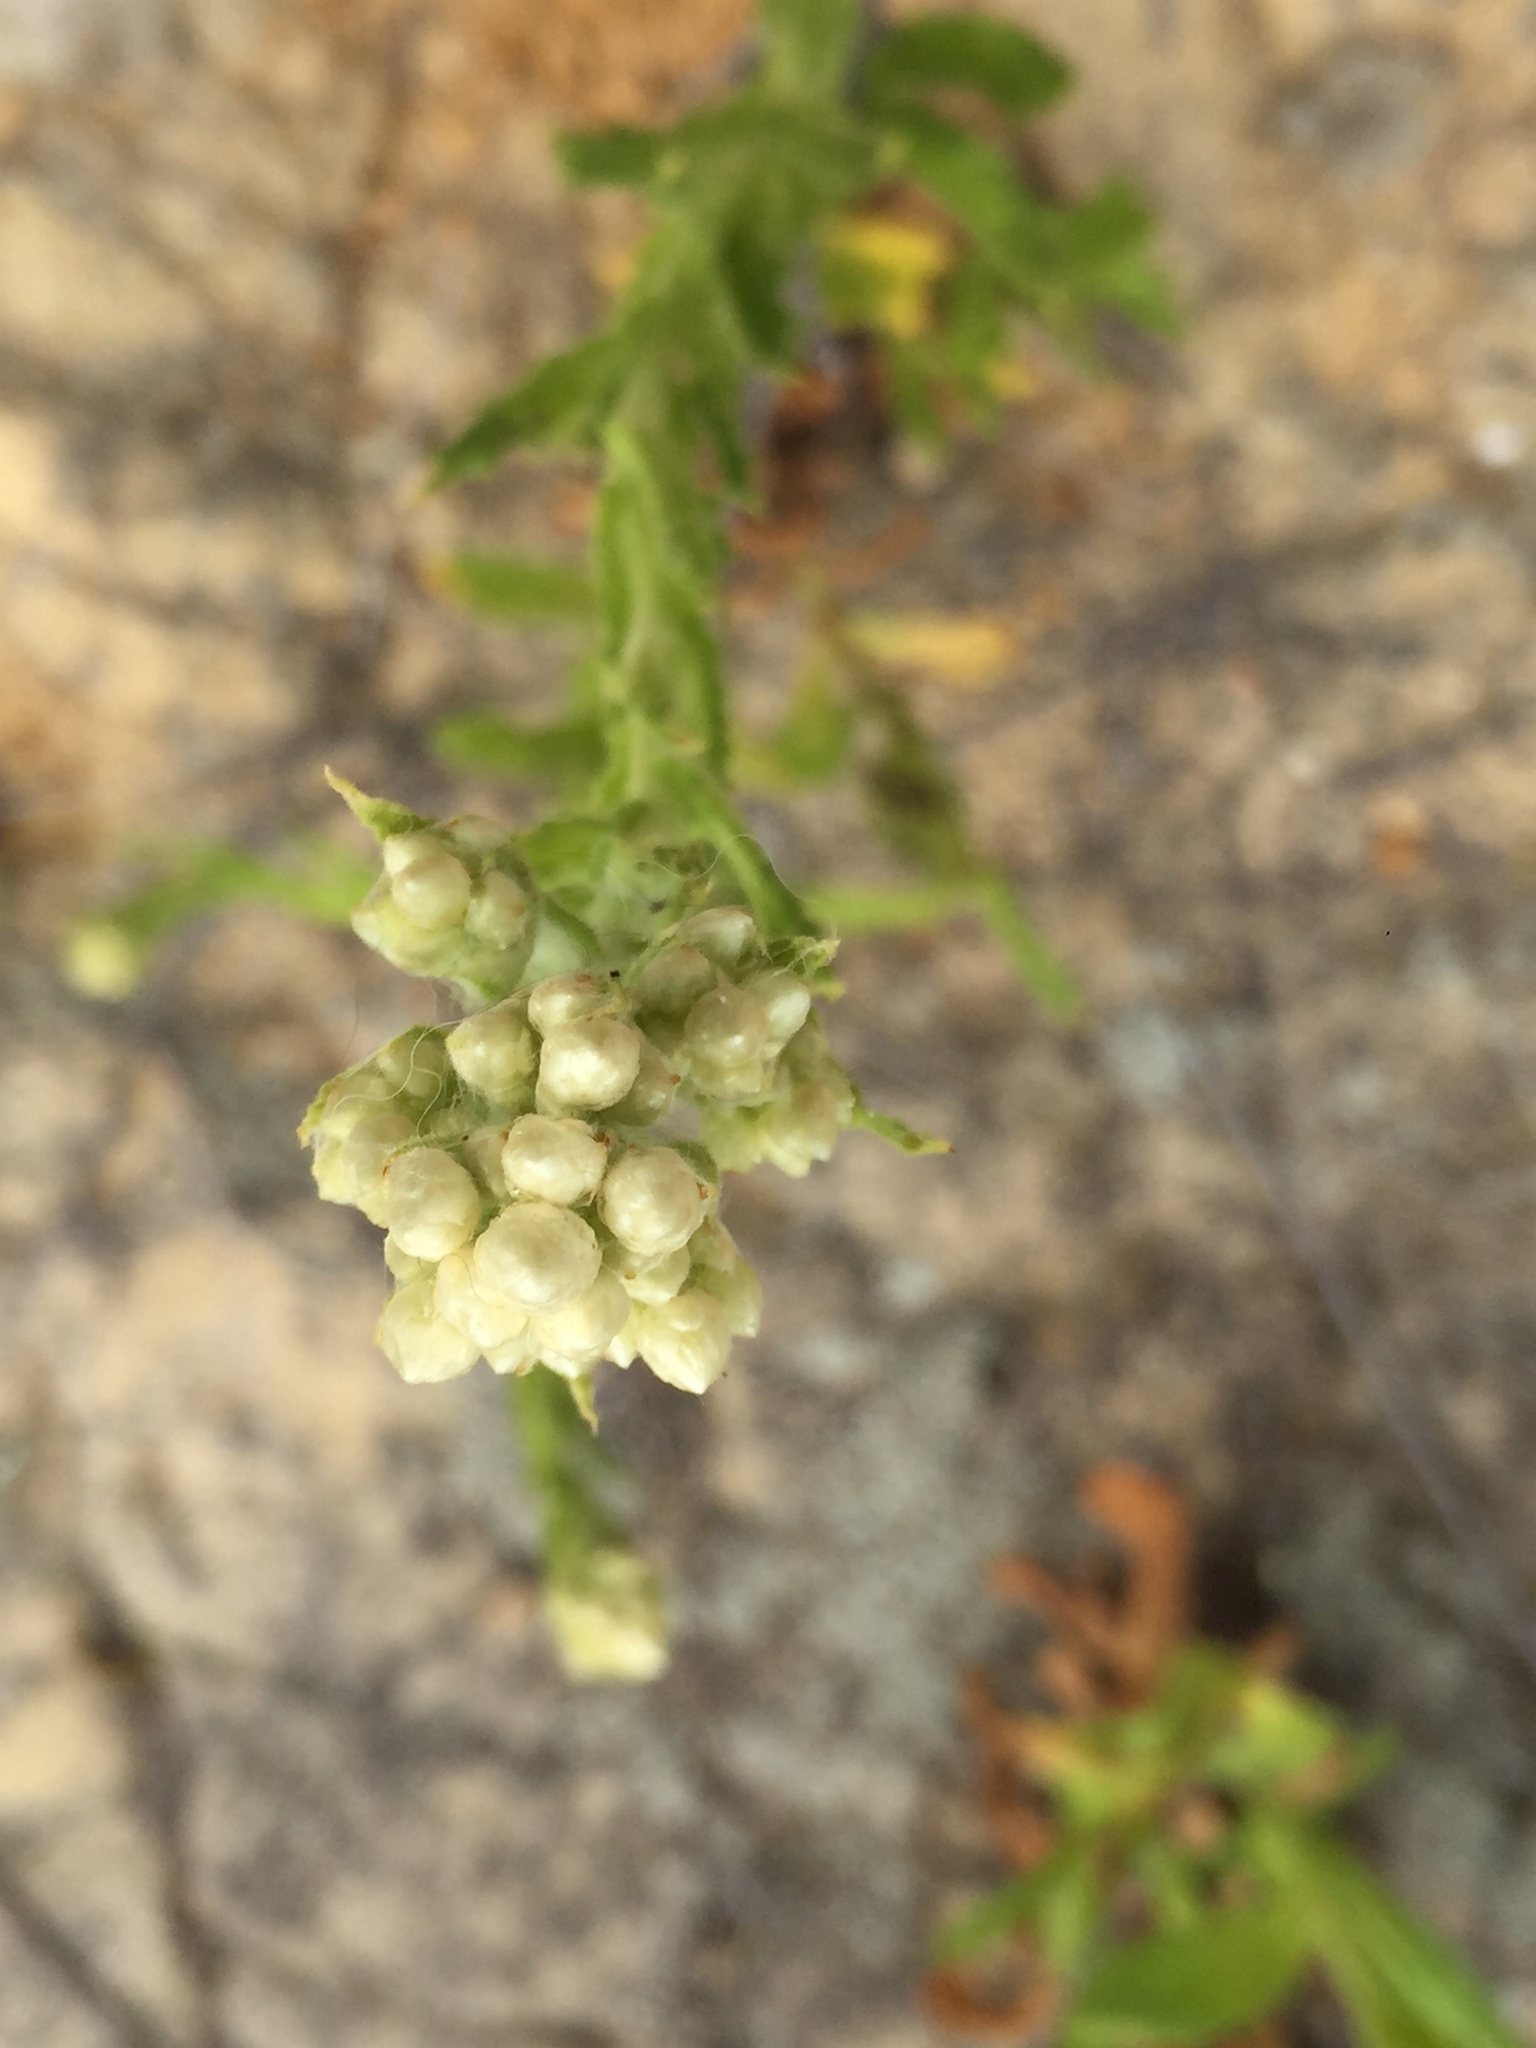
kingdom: Plantae
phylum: Tracheophyta
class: Magnoliopsida
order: Asterales
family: Asteraceae
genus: Pseudognaphalium
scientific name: Pseudognaphalium californicum
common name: California rabbit-tobacco
